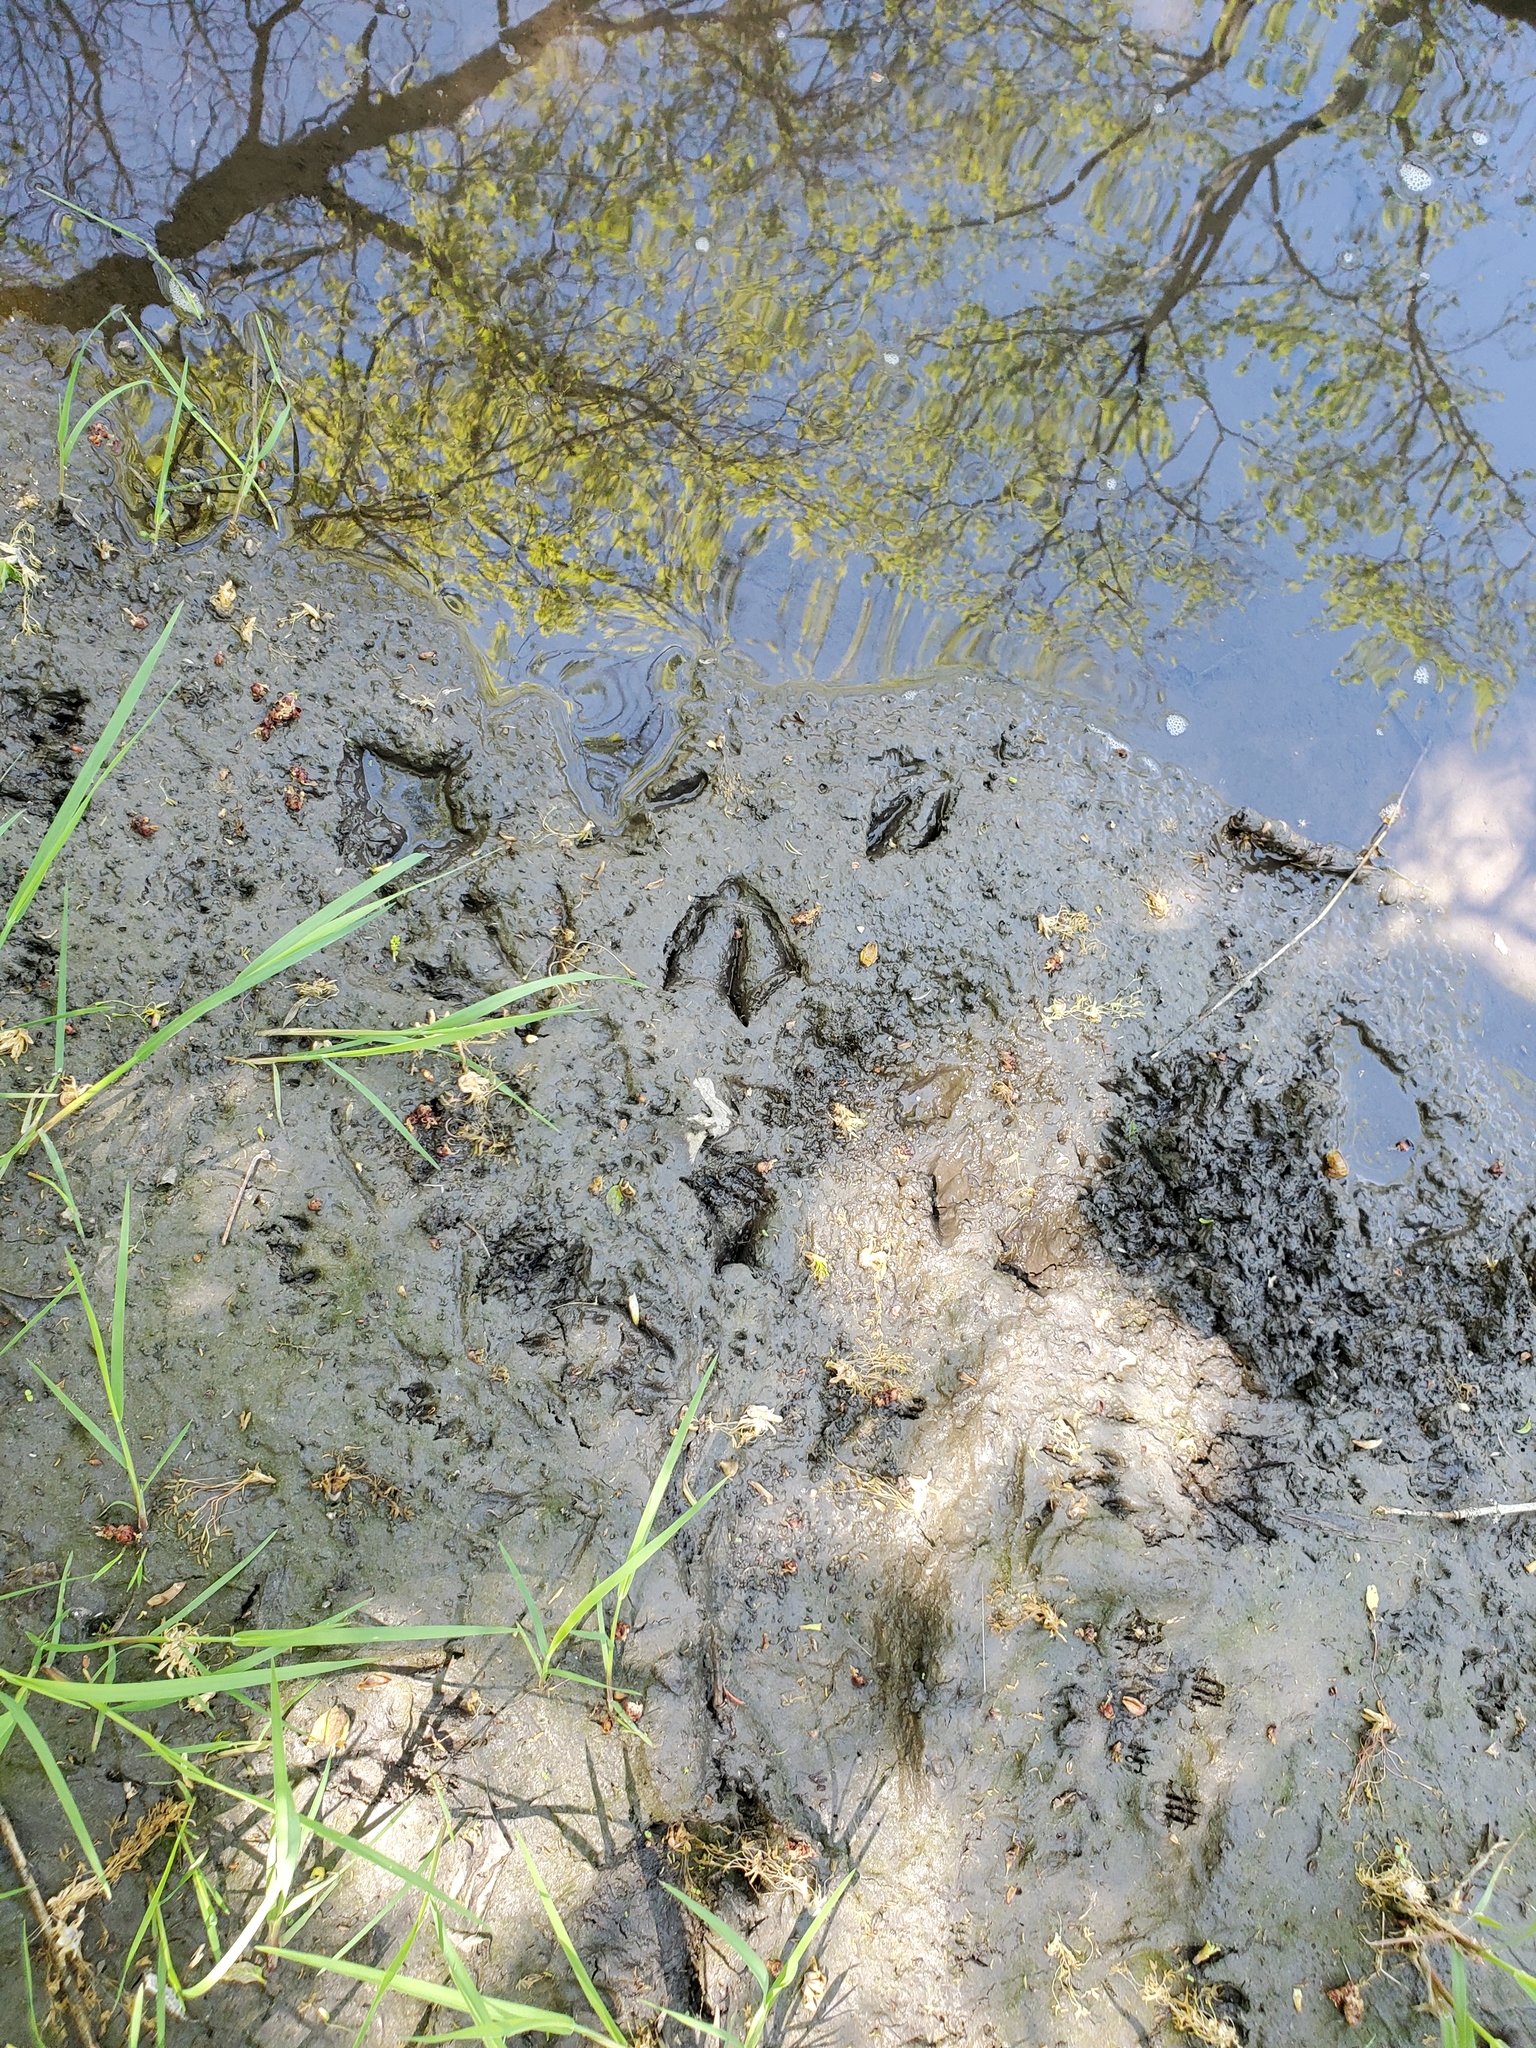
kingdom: Animalia
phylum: Chordata
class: Aves
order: Anseriformes
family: Anatidae
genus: Branta
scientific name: Branta canadensis
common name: Canada goose
